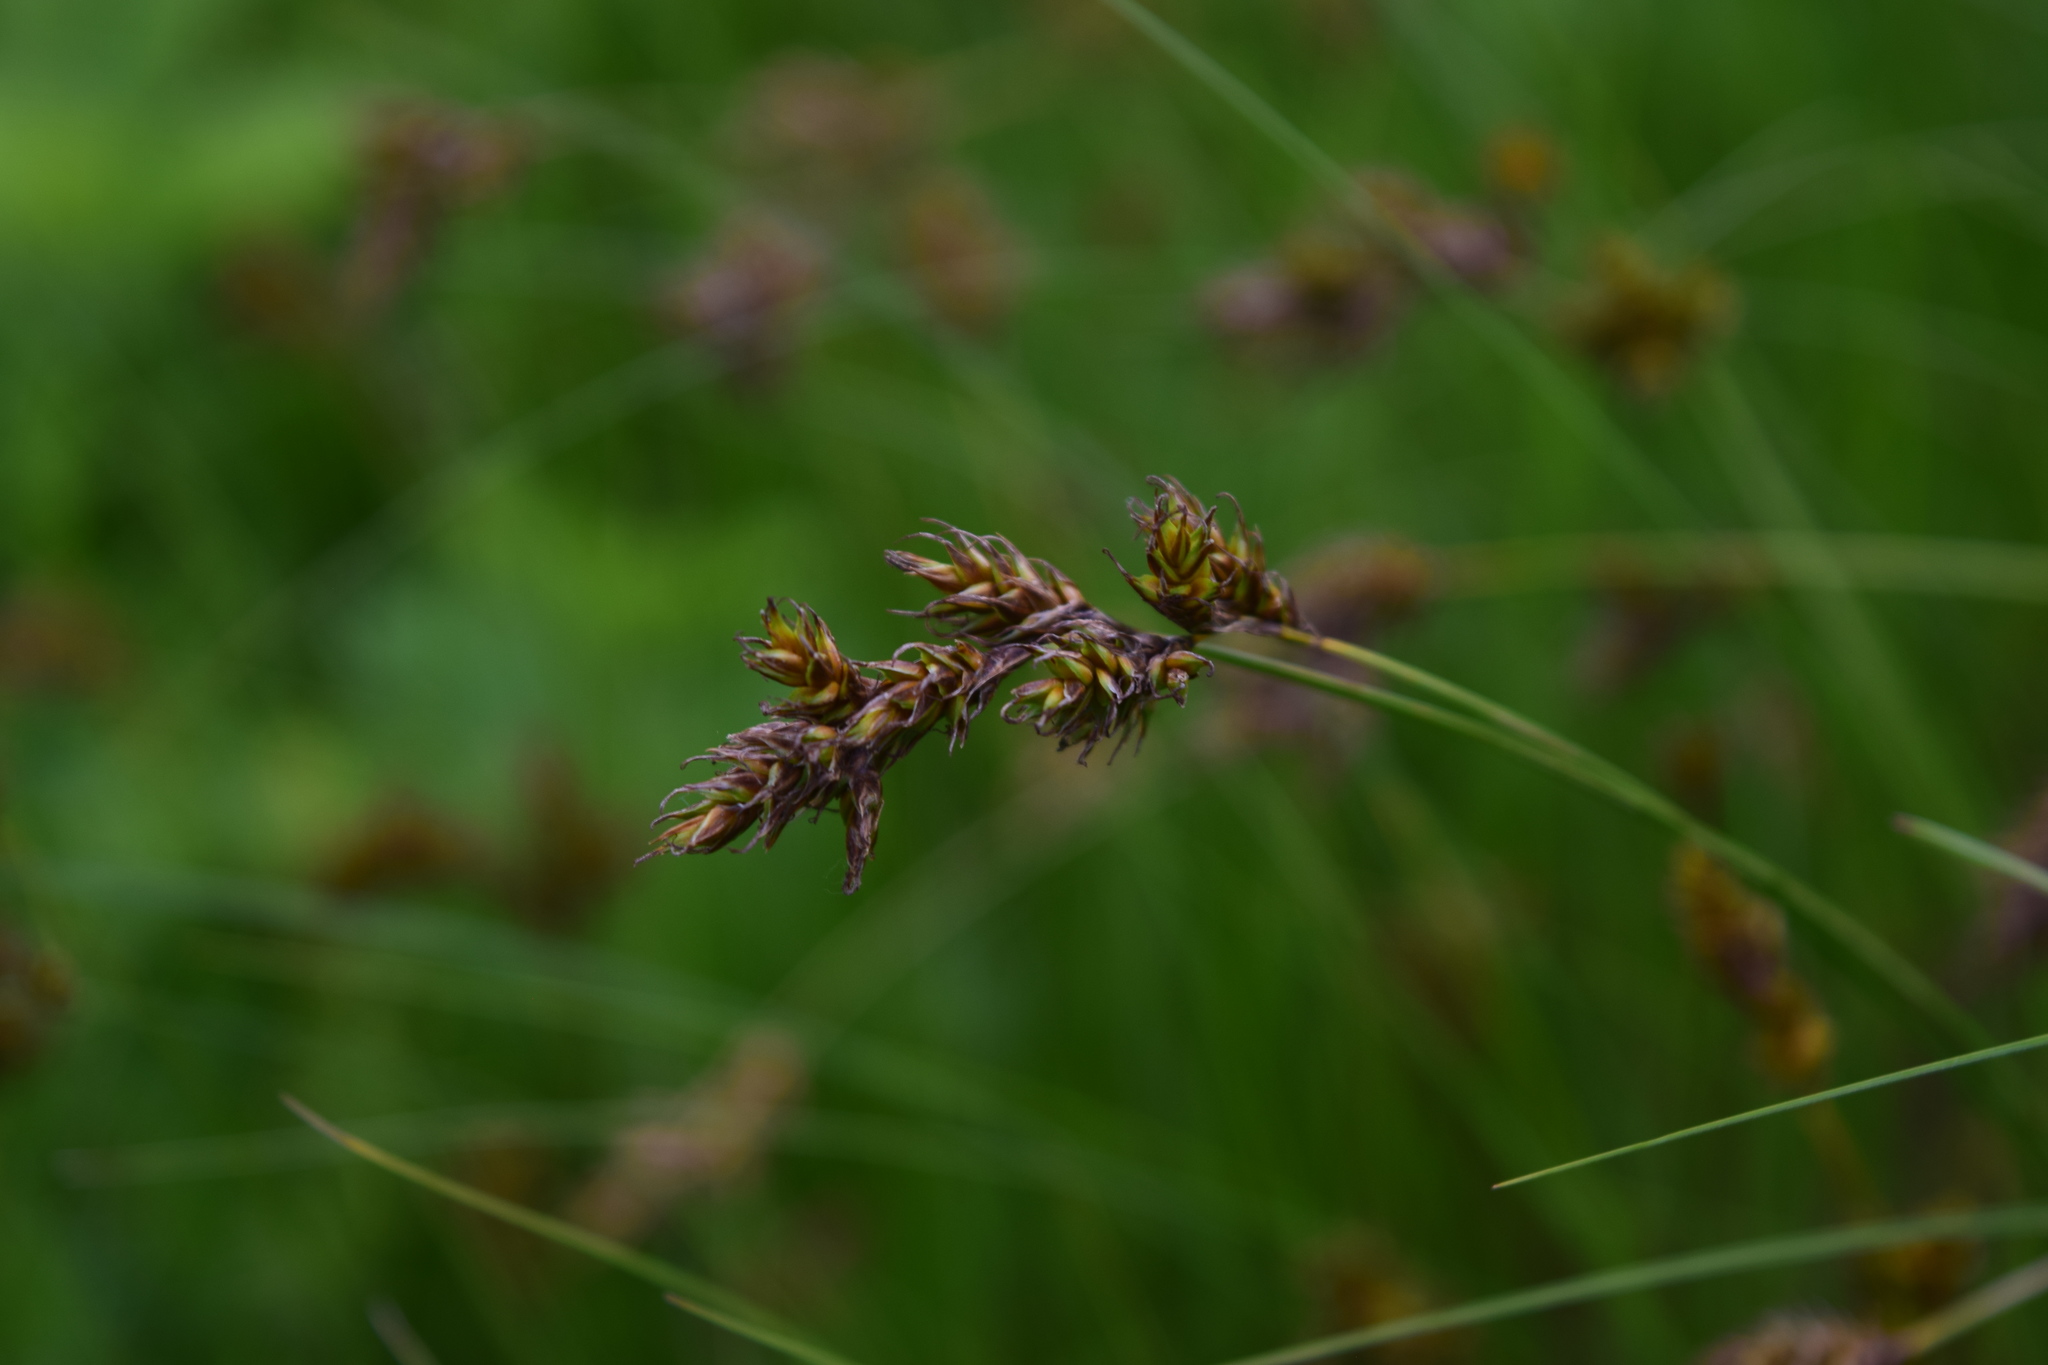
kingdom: Plantae
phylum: Tracheophyta
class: Liliopsida
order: Poales
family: Cyperaceae
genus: Carex
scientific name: Carex praecox
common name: Early sedge
